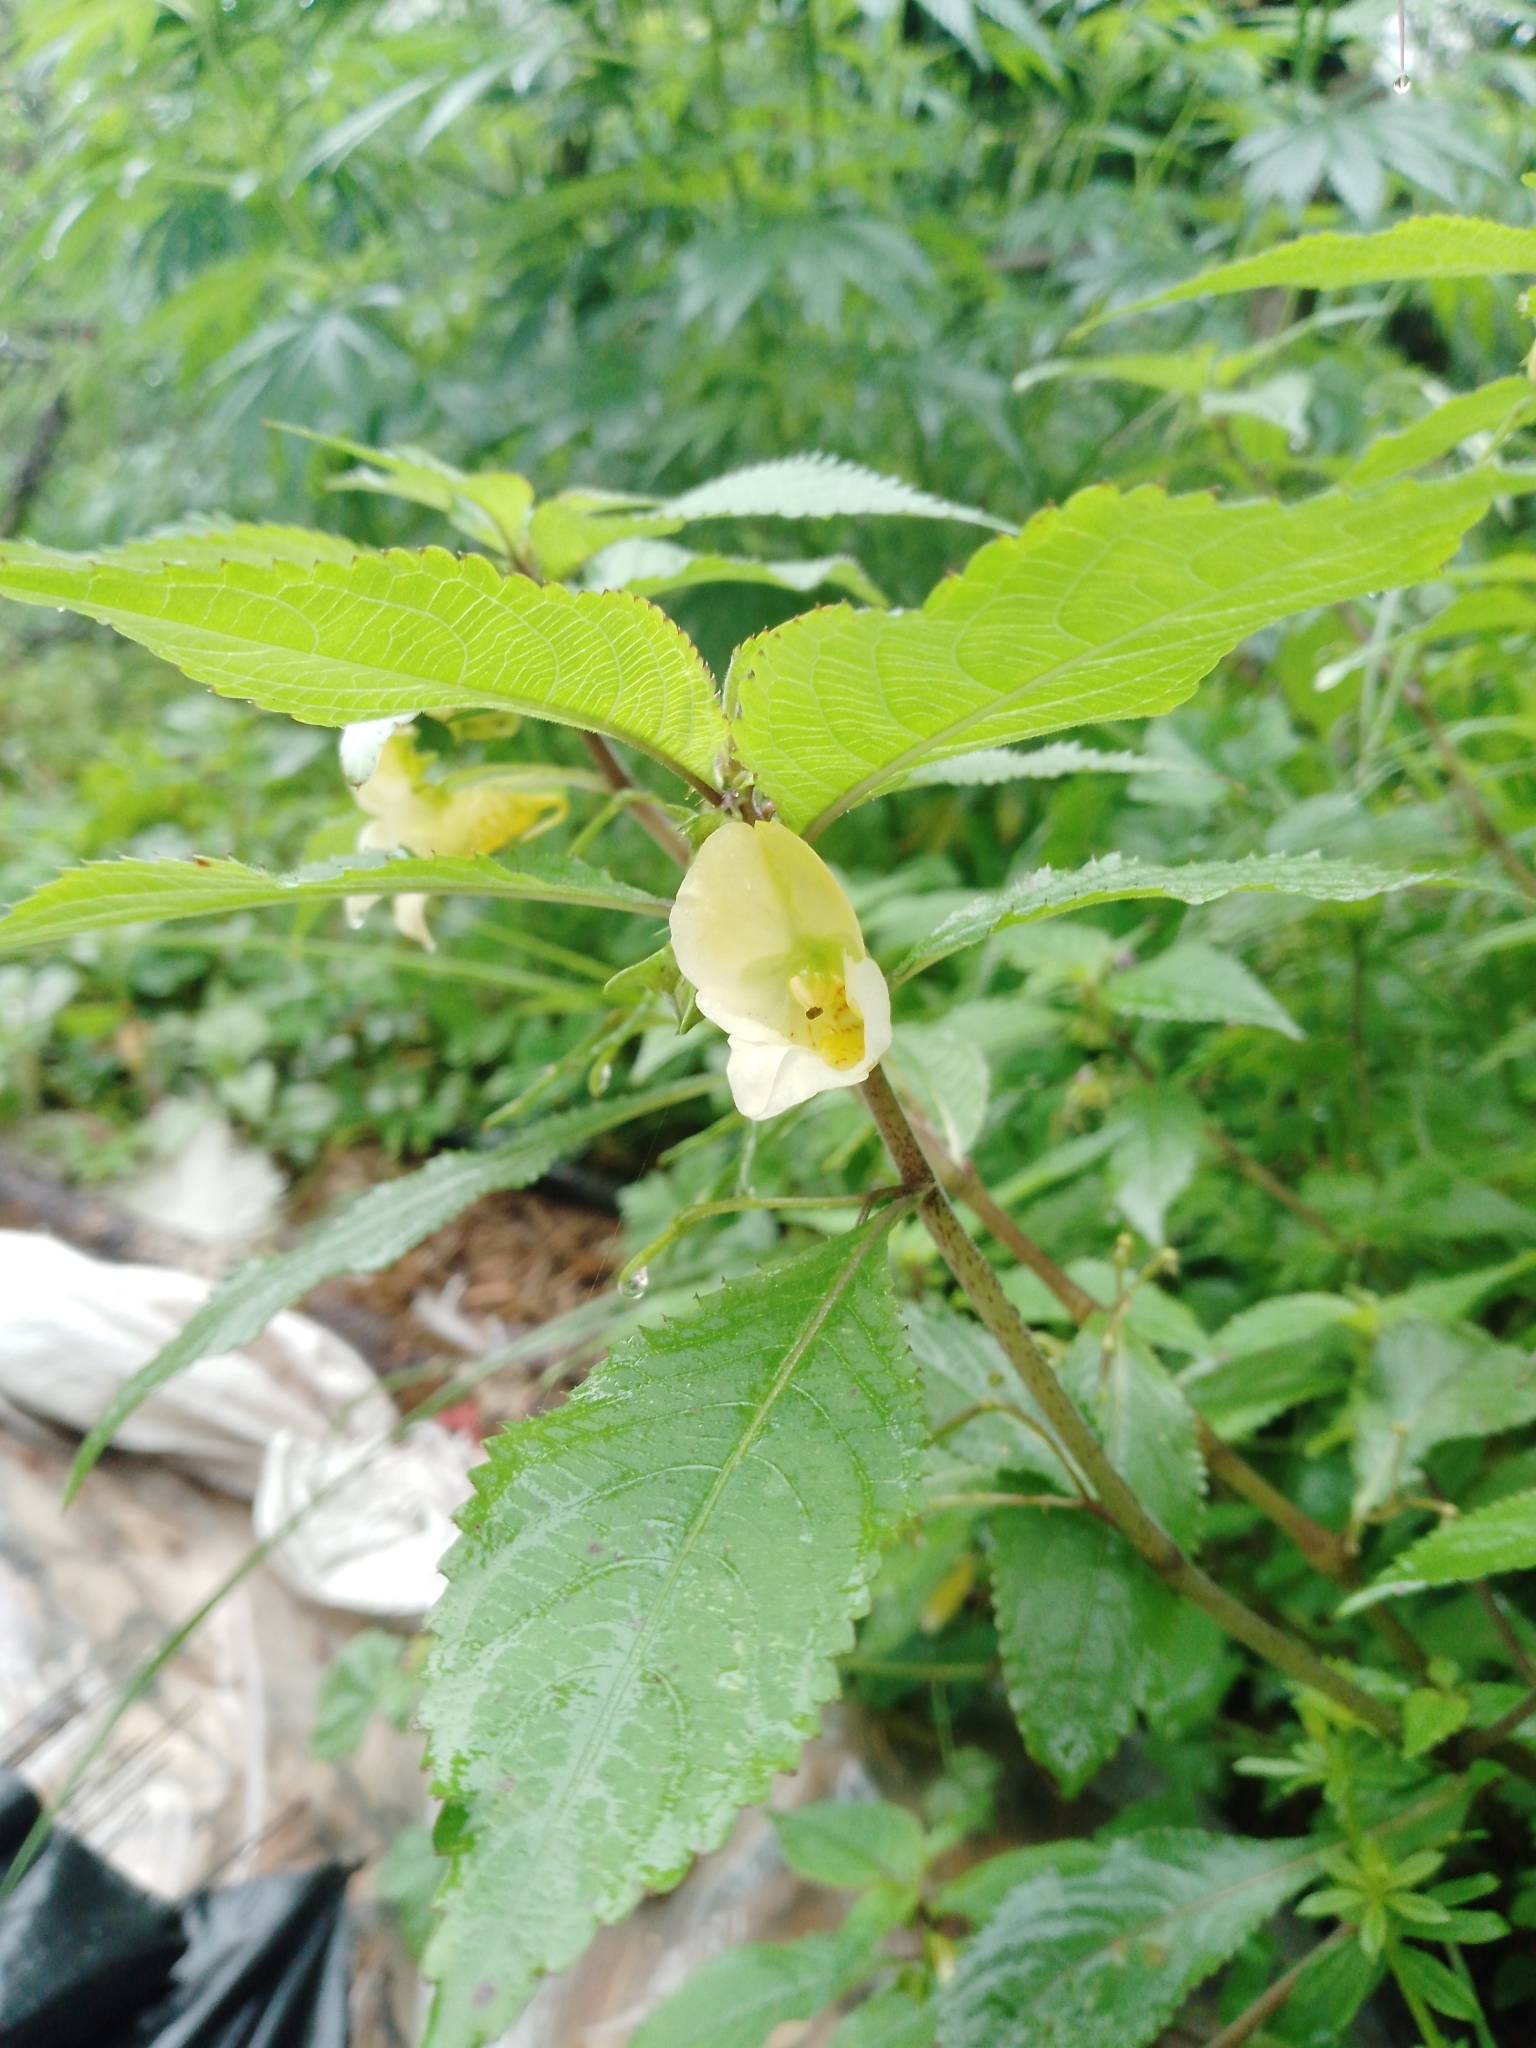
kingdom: Plantae
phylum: Tracheophyta
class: Magnoliopsida
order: Ericales
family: Balsaminaceae
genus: Impatiens
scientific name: Impatiens tricornis
